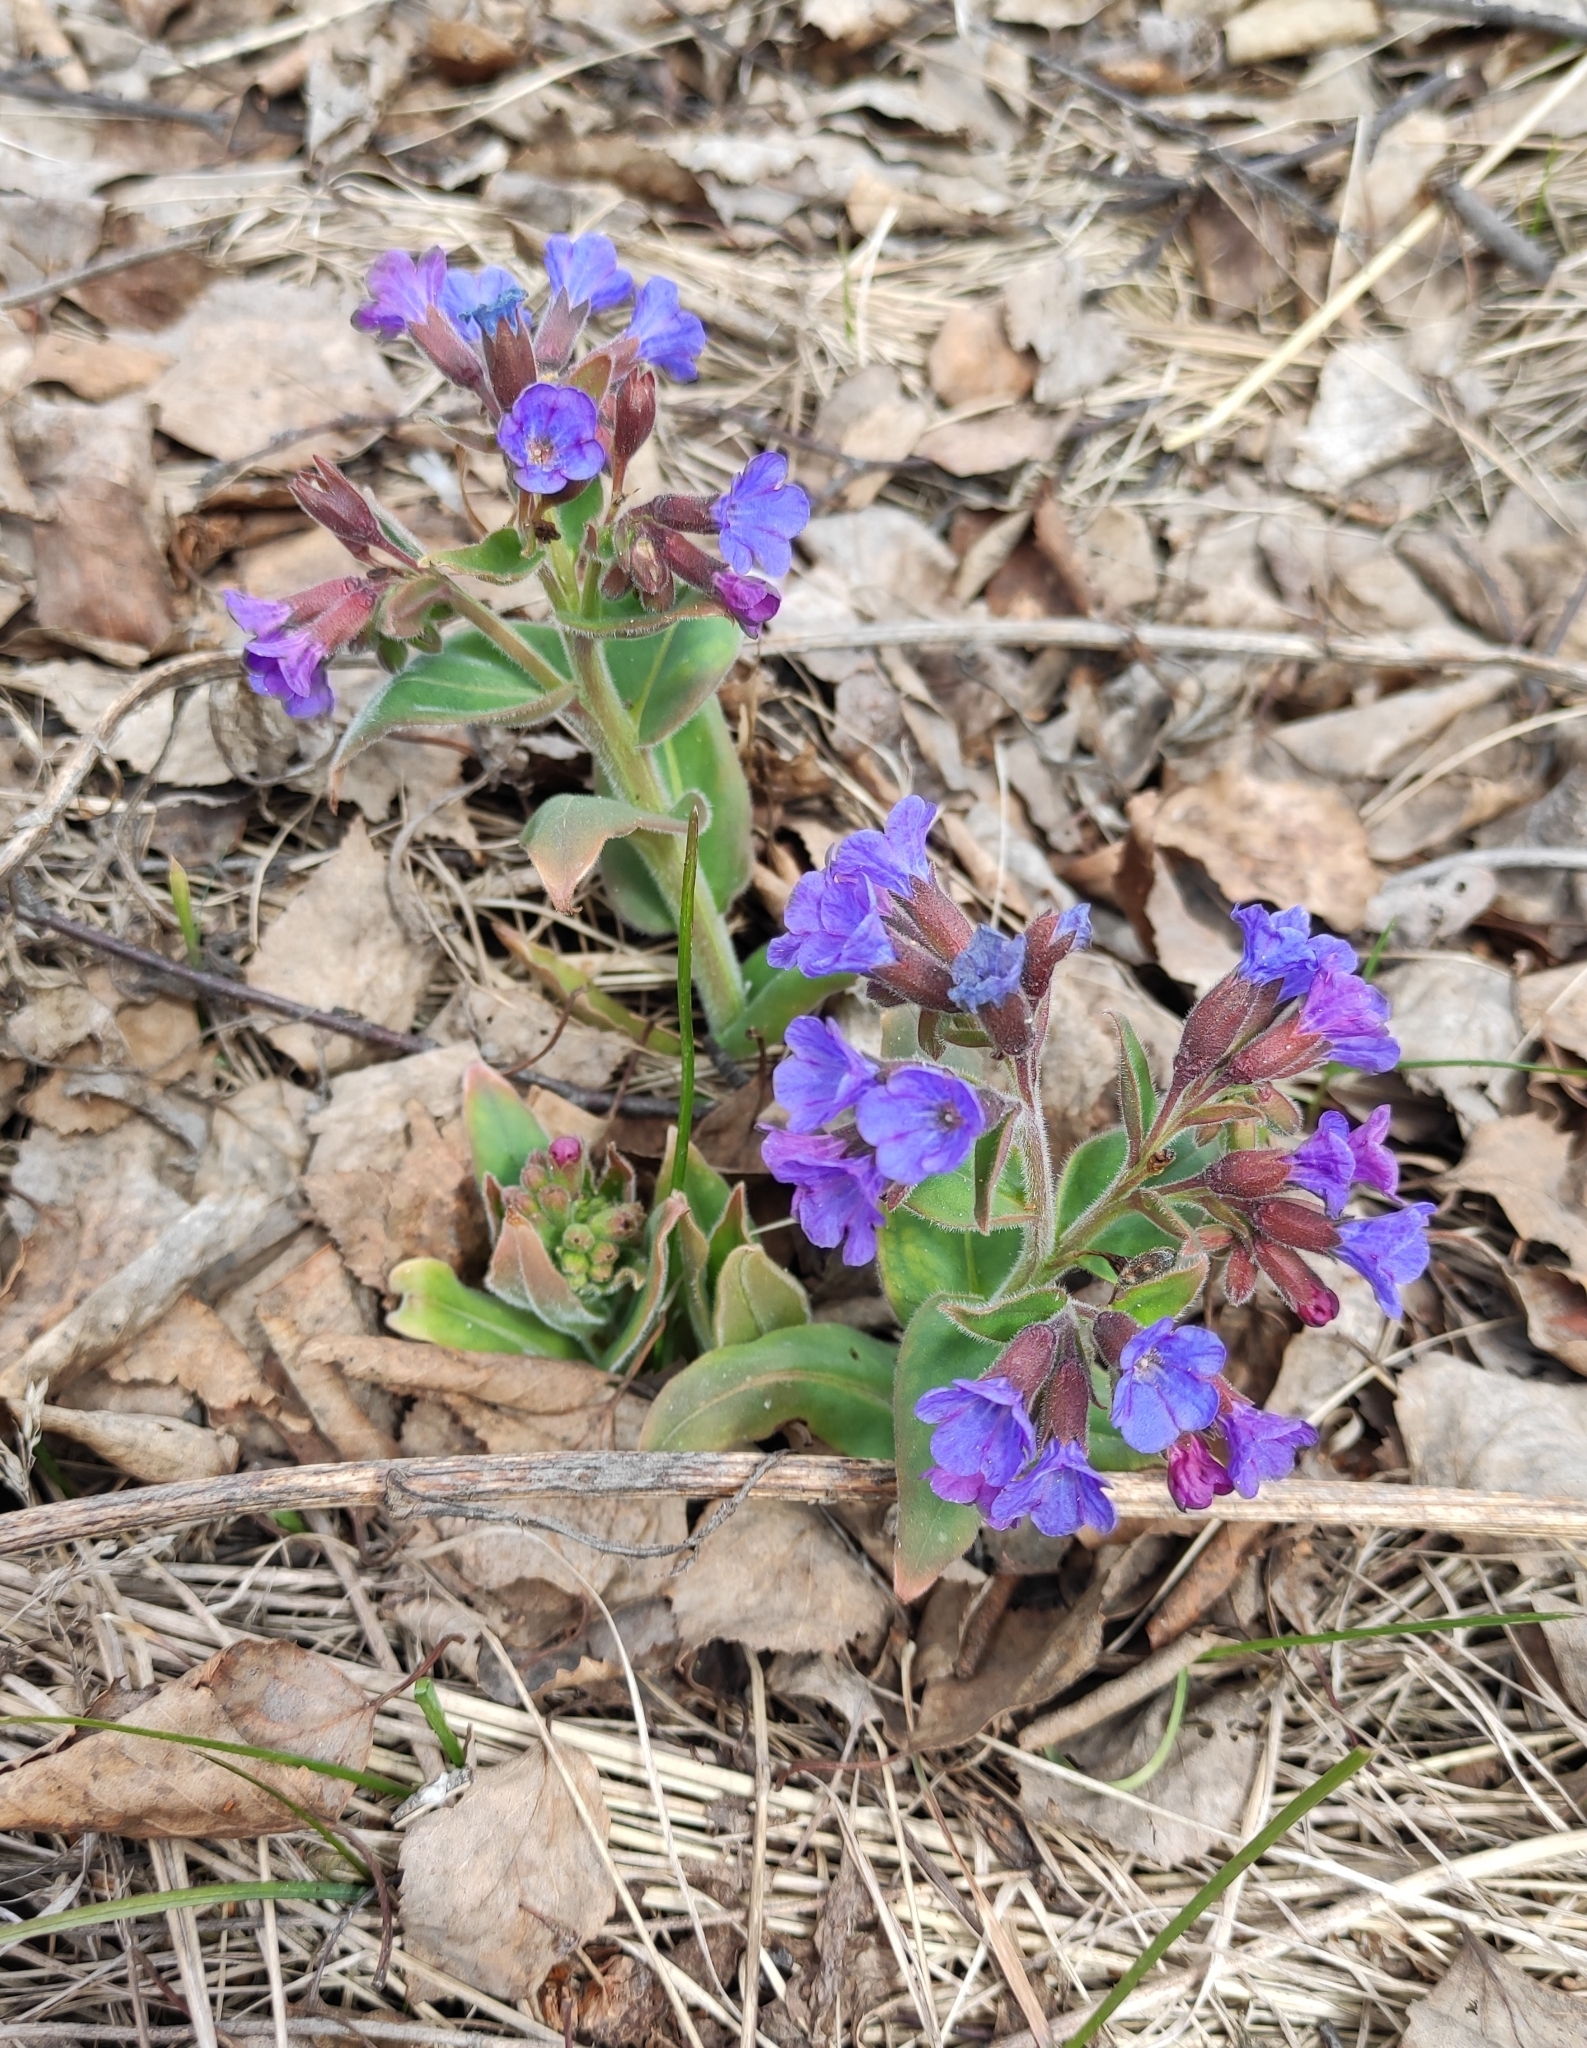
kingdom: Plantae
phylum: Tracheophyta
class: Magnoliopsida
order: Boraginales
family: Boraginaceae
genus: Pulmonaria
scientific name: Pulmonaria mollis
